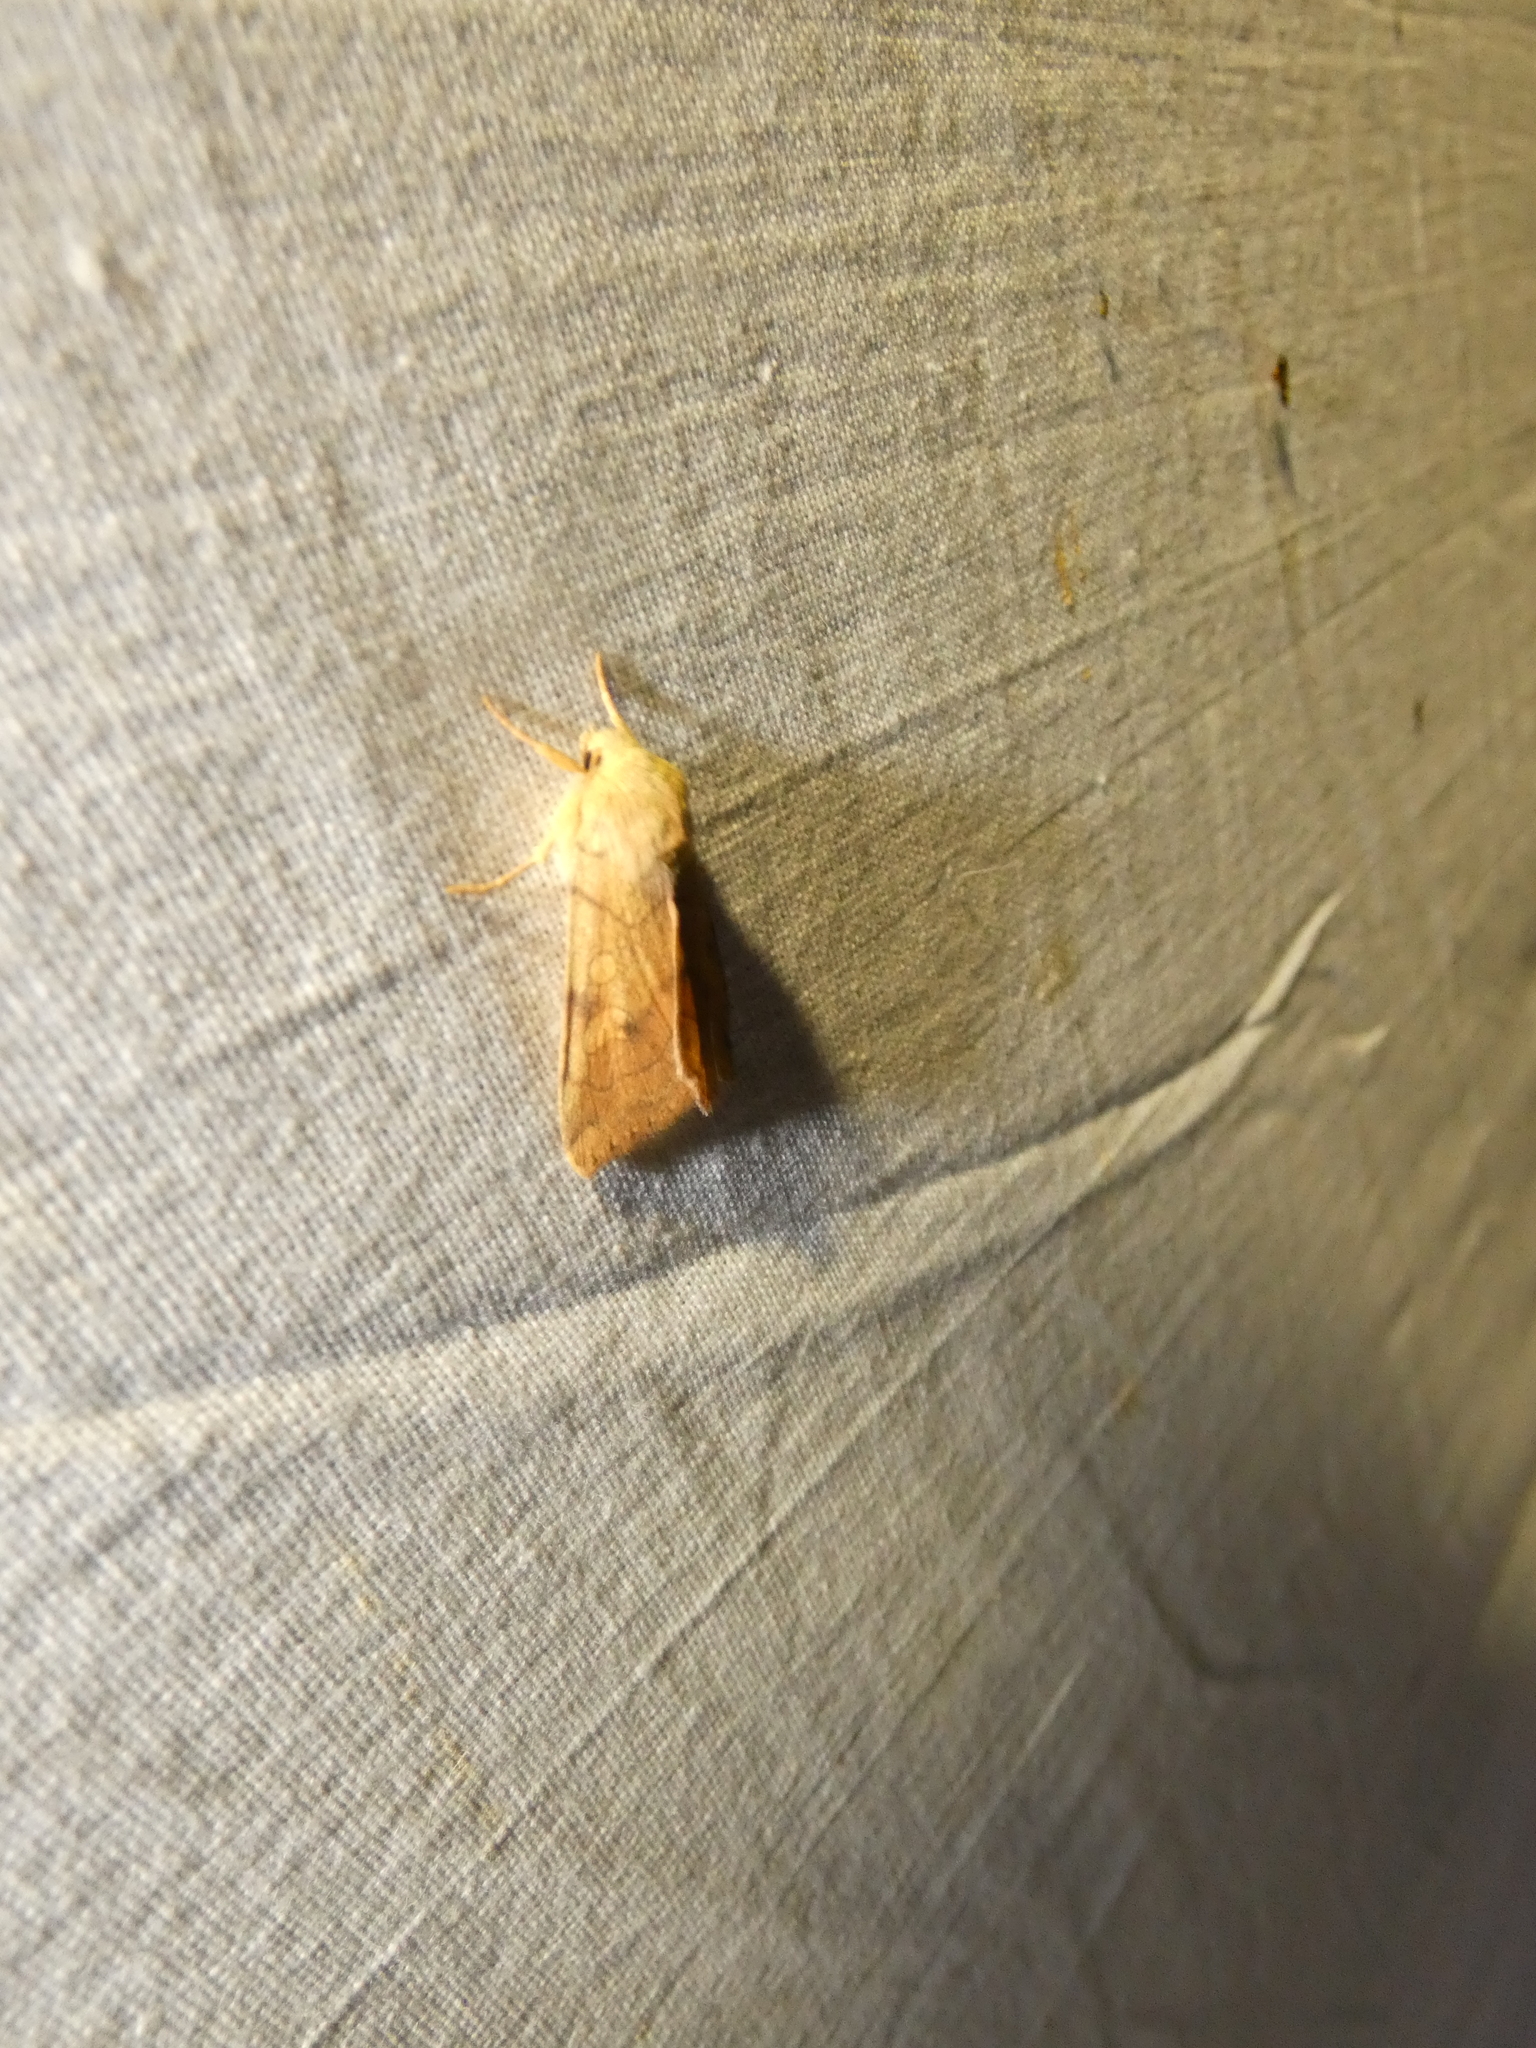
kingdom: Animalia
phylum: Arthropoda
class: Insecta
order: Lepidoptera
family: Noctuidae
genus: Enargia
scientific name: Enargia paleacea
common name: Angle-striped sallow
